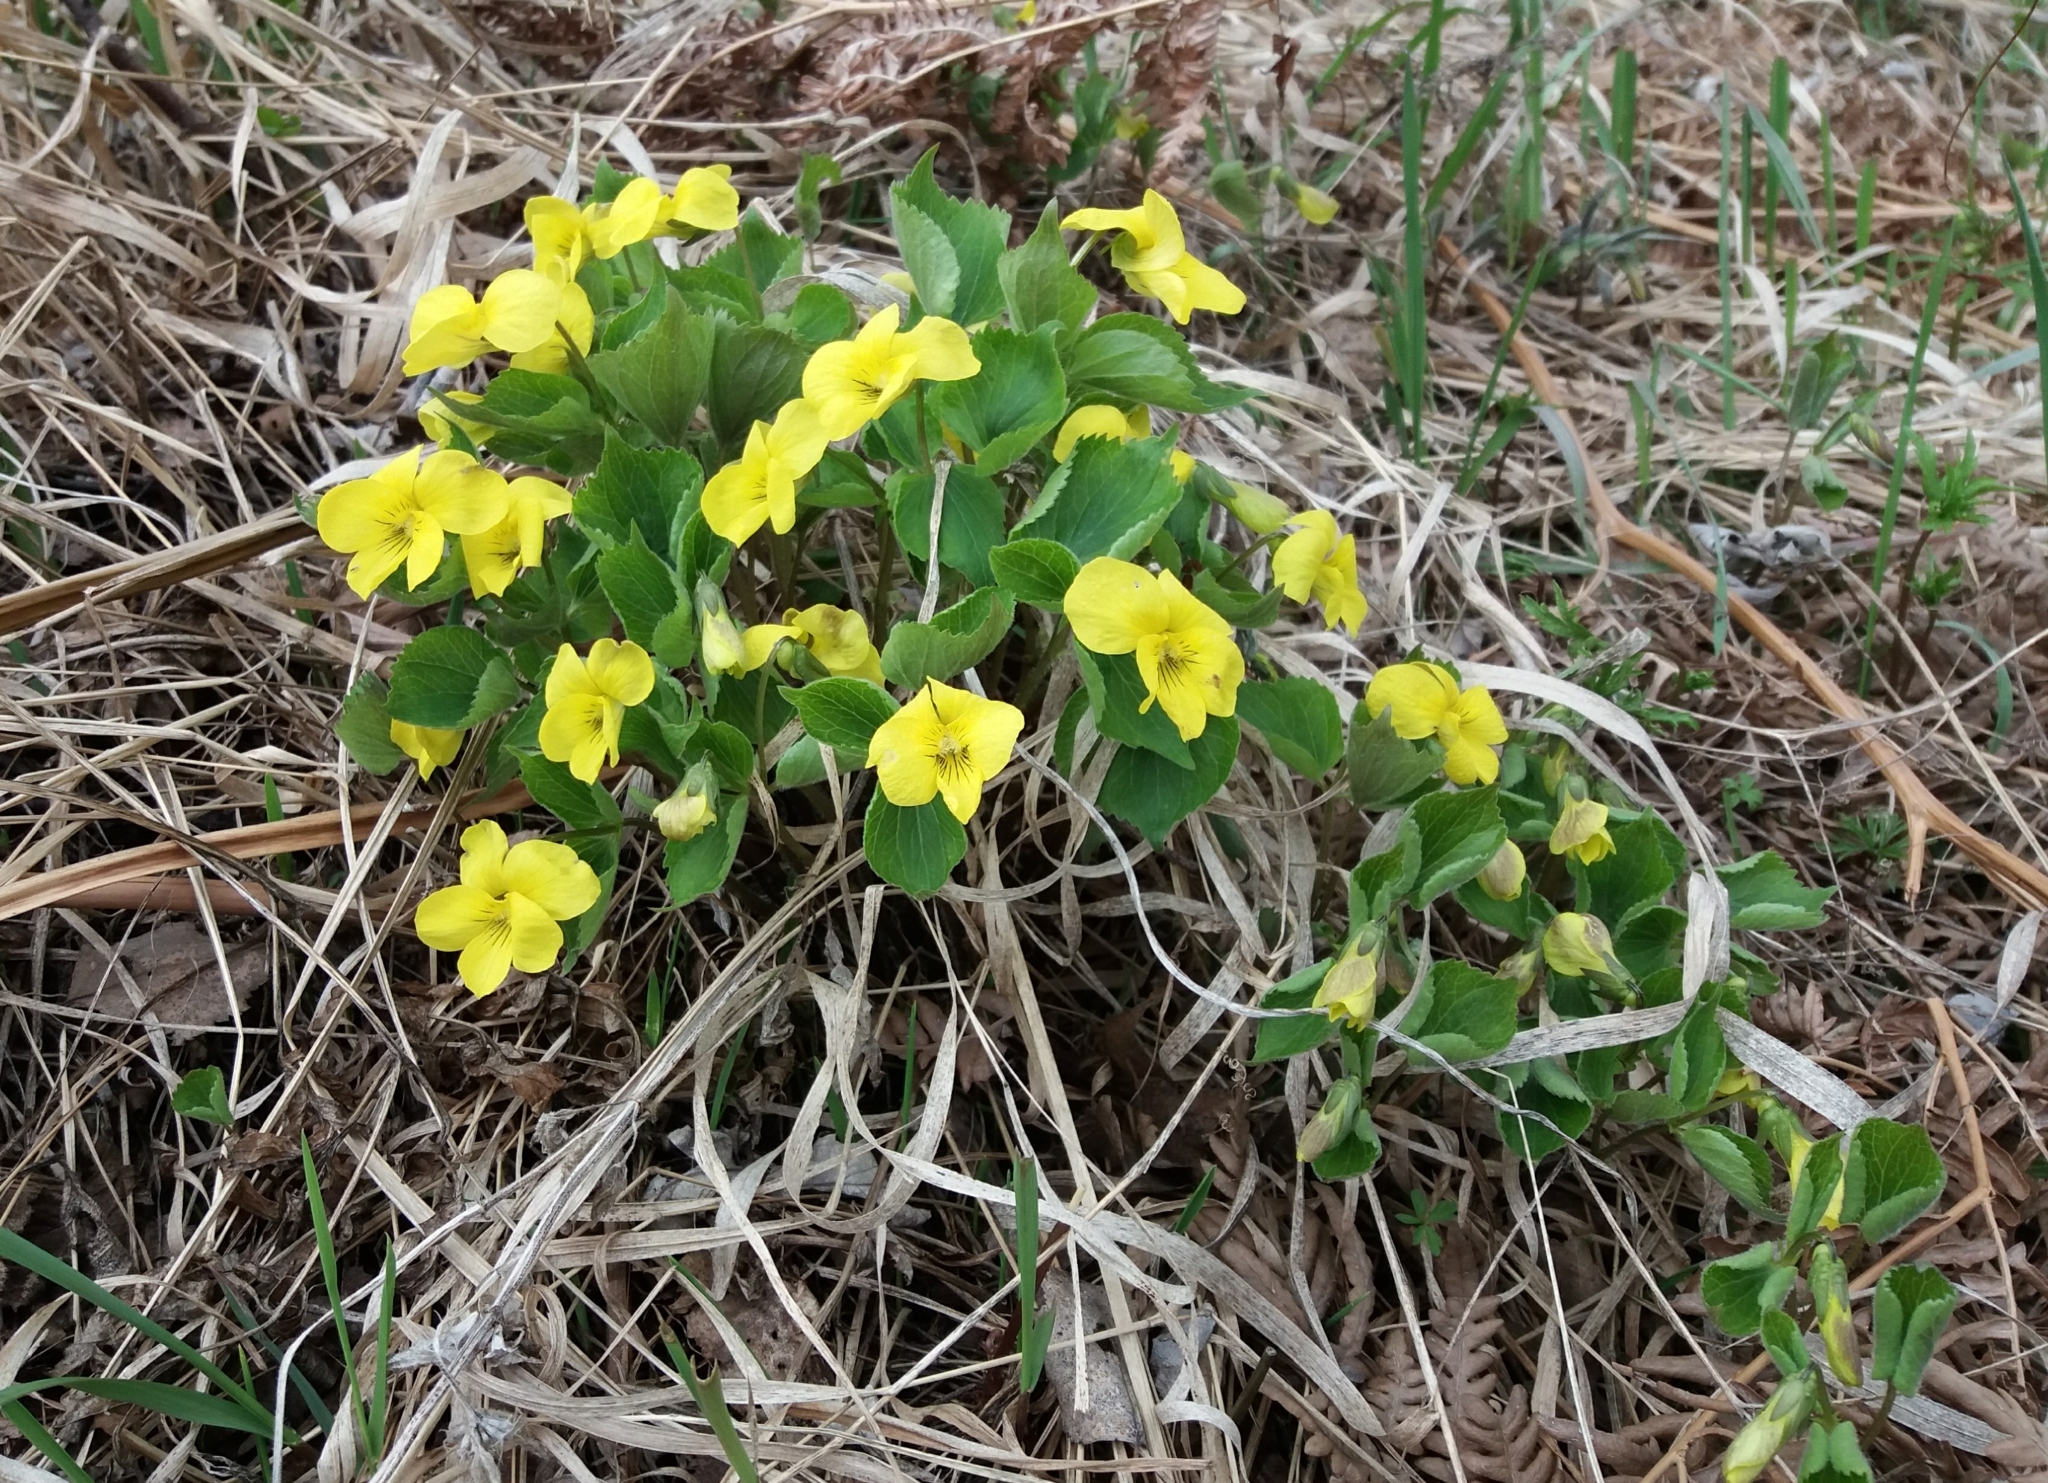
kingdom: Plantae
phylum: Tracheophyta
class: Magnoliopsida
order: Malpighiales
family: Violaceae
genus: Viola
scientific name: Viola uniflora
